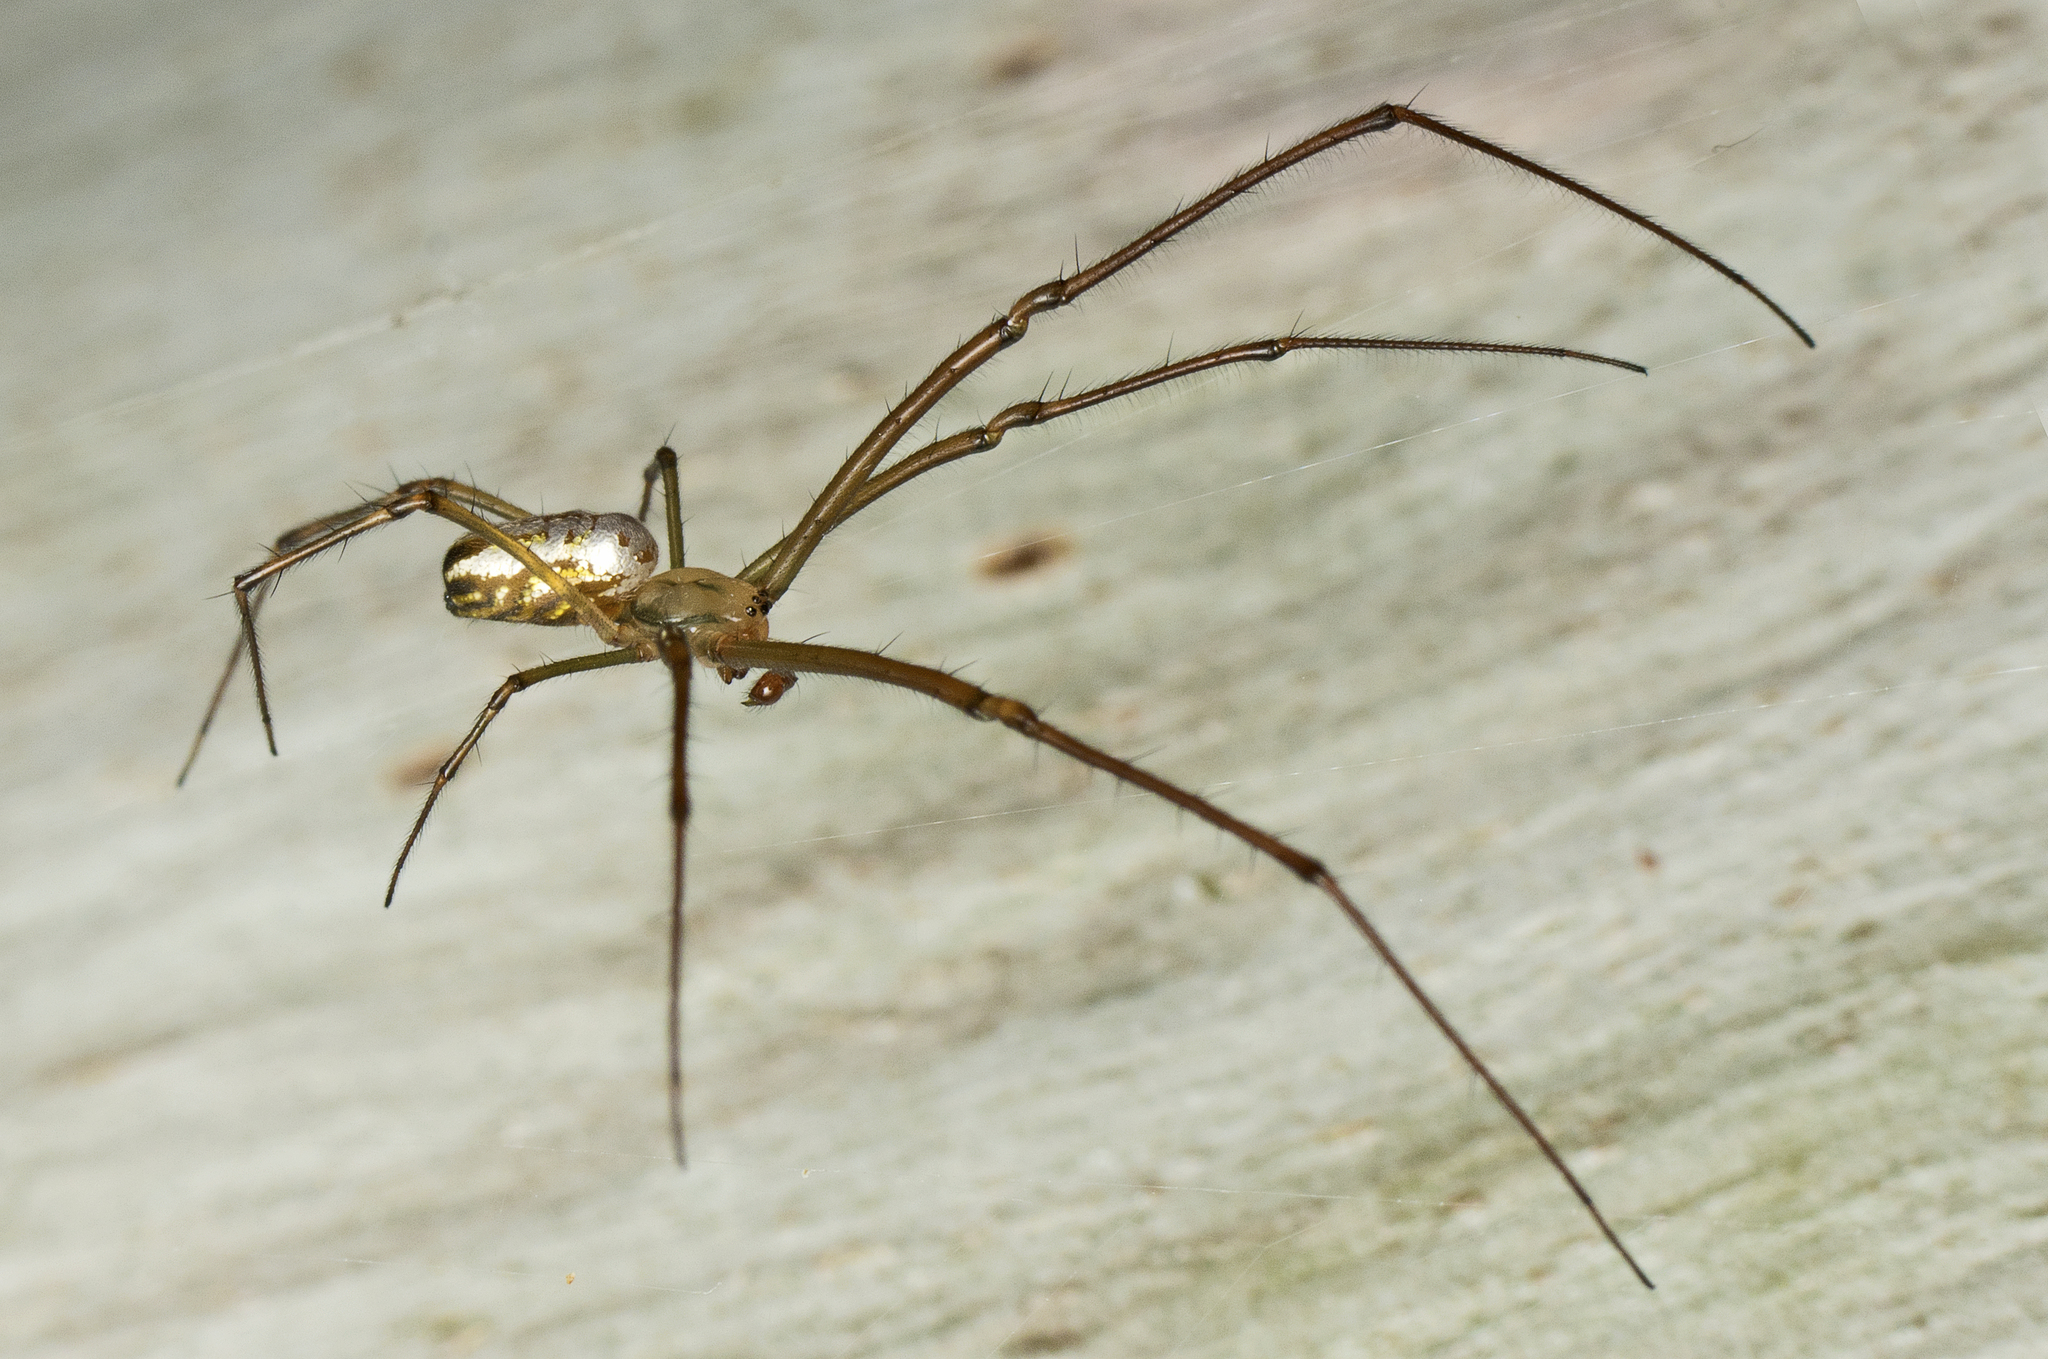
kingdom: Animalia
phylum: Arthropoda
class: Arachnida
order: Araneae
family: Tetragnathidae
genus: Leucauge
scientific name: Leucauge dromedaria
